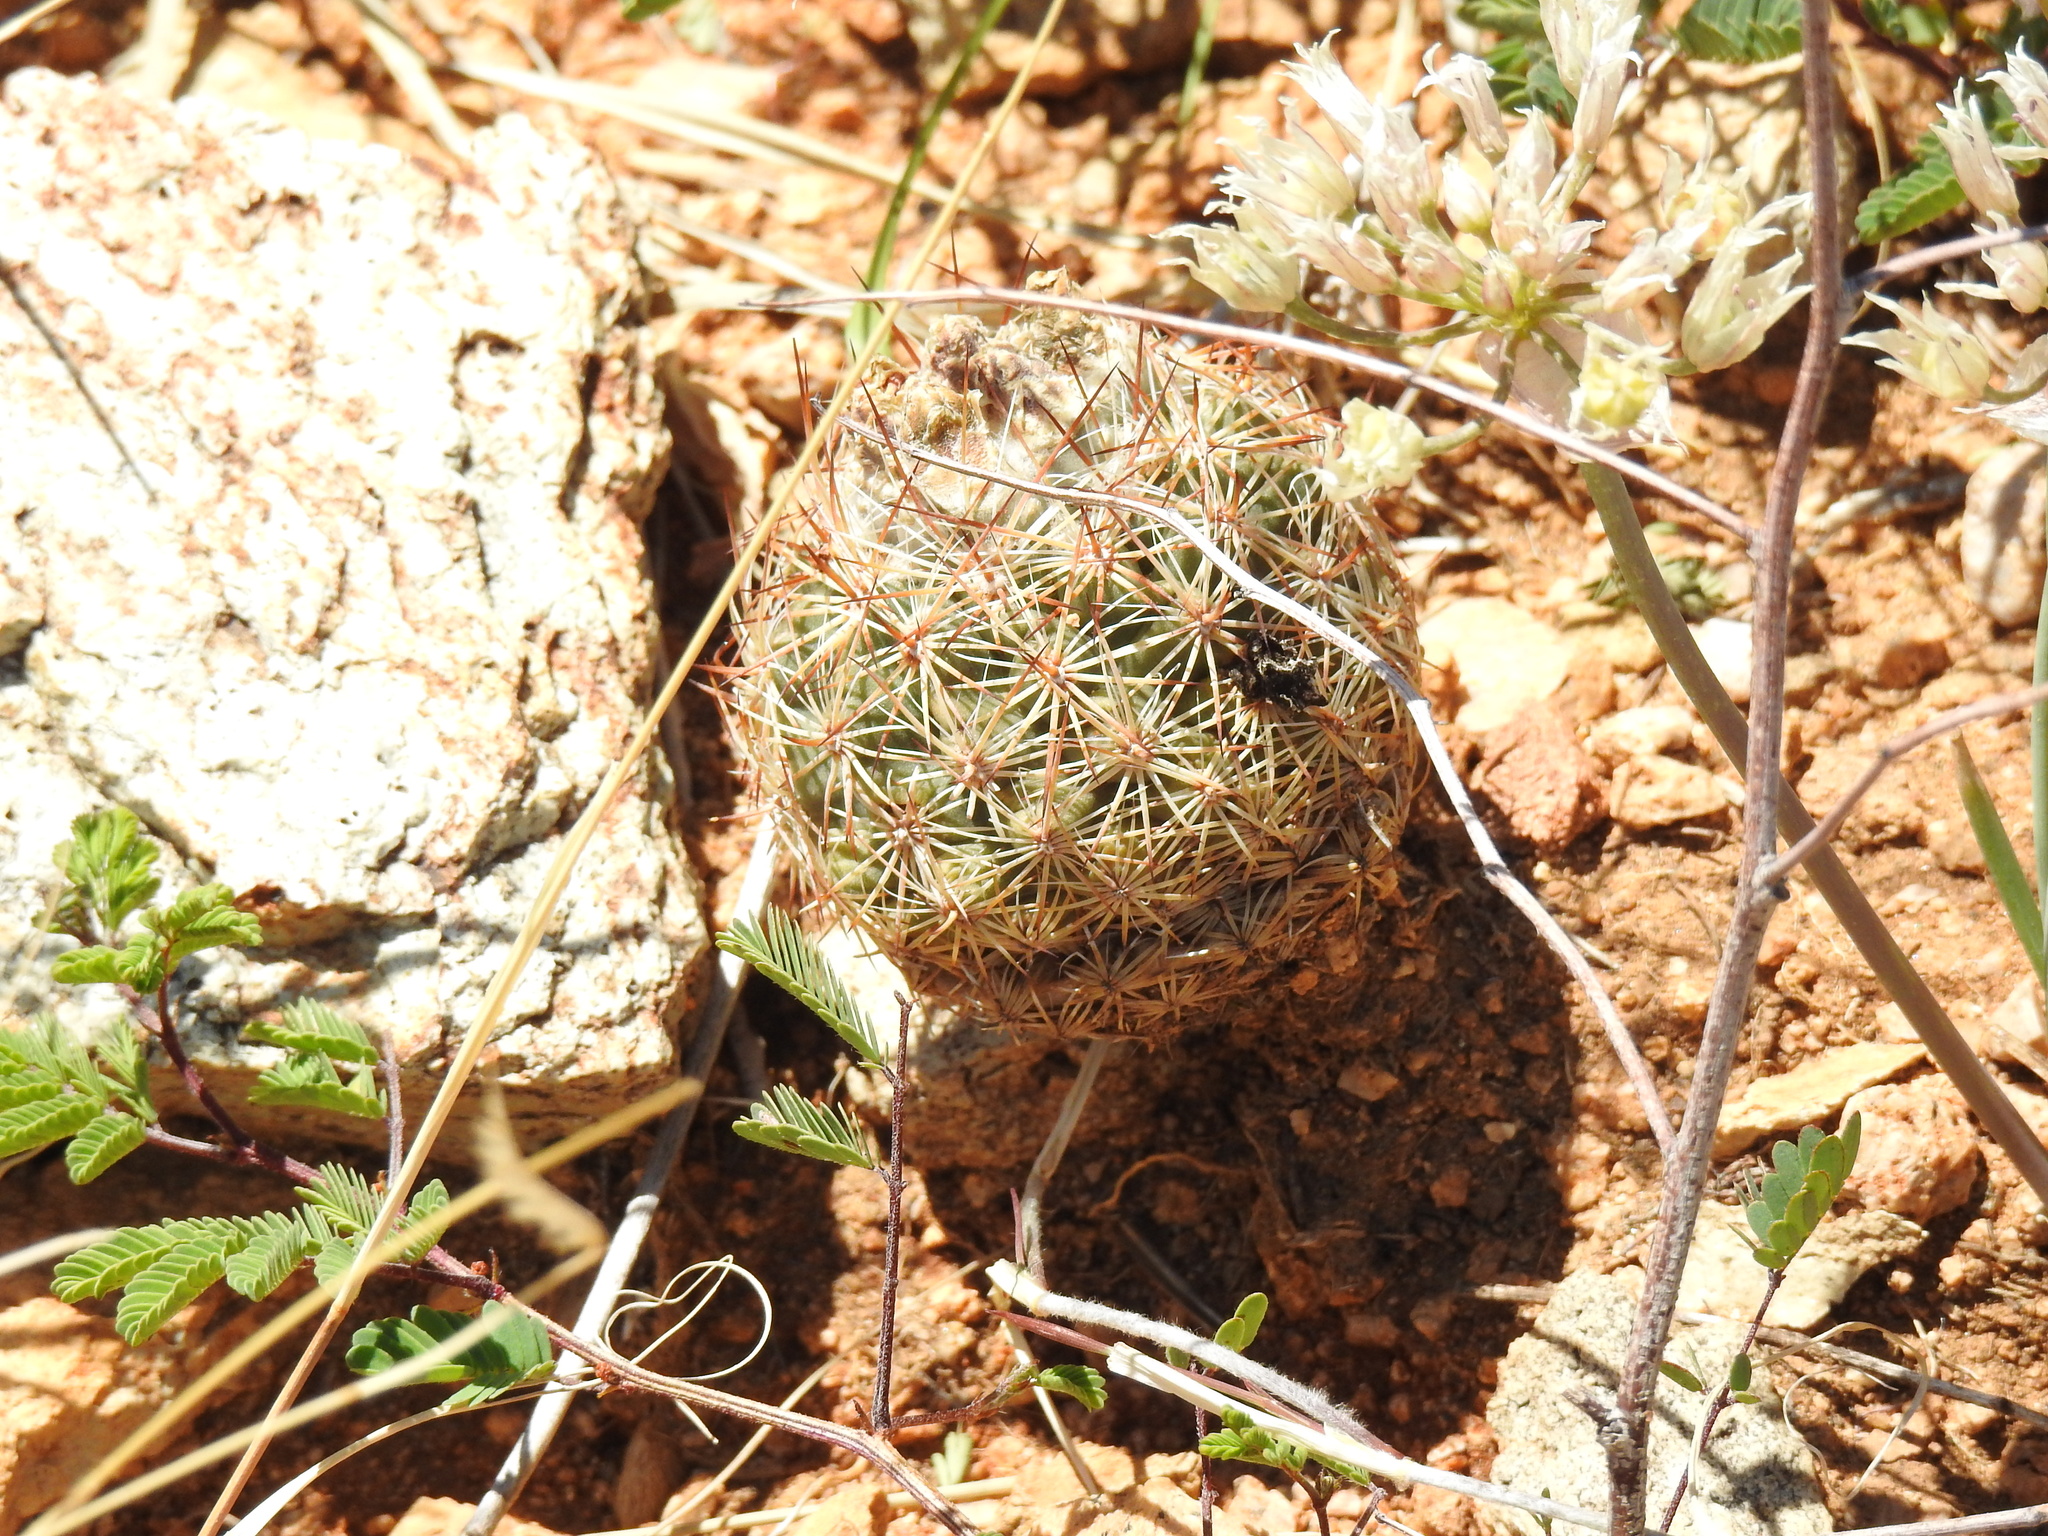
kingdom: Plantae
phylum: Tracheophyta
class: Magnoliopsida
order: Caryophyllales
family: Cactaceae
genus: Sclerocactus
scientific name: Sclerocactus intertextus
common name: White fish-hook cactus
